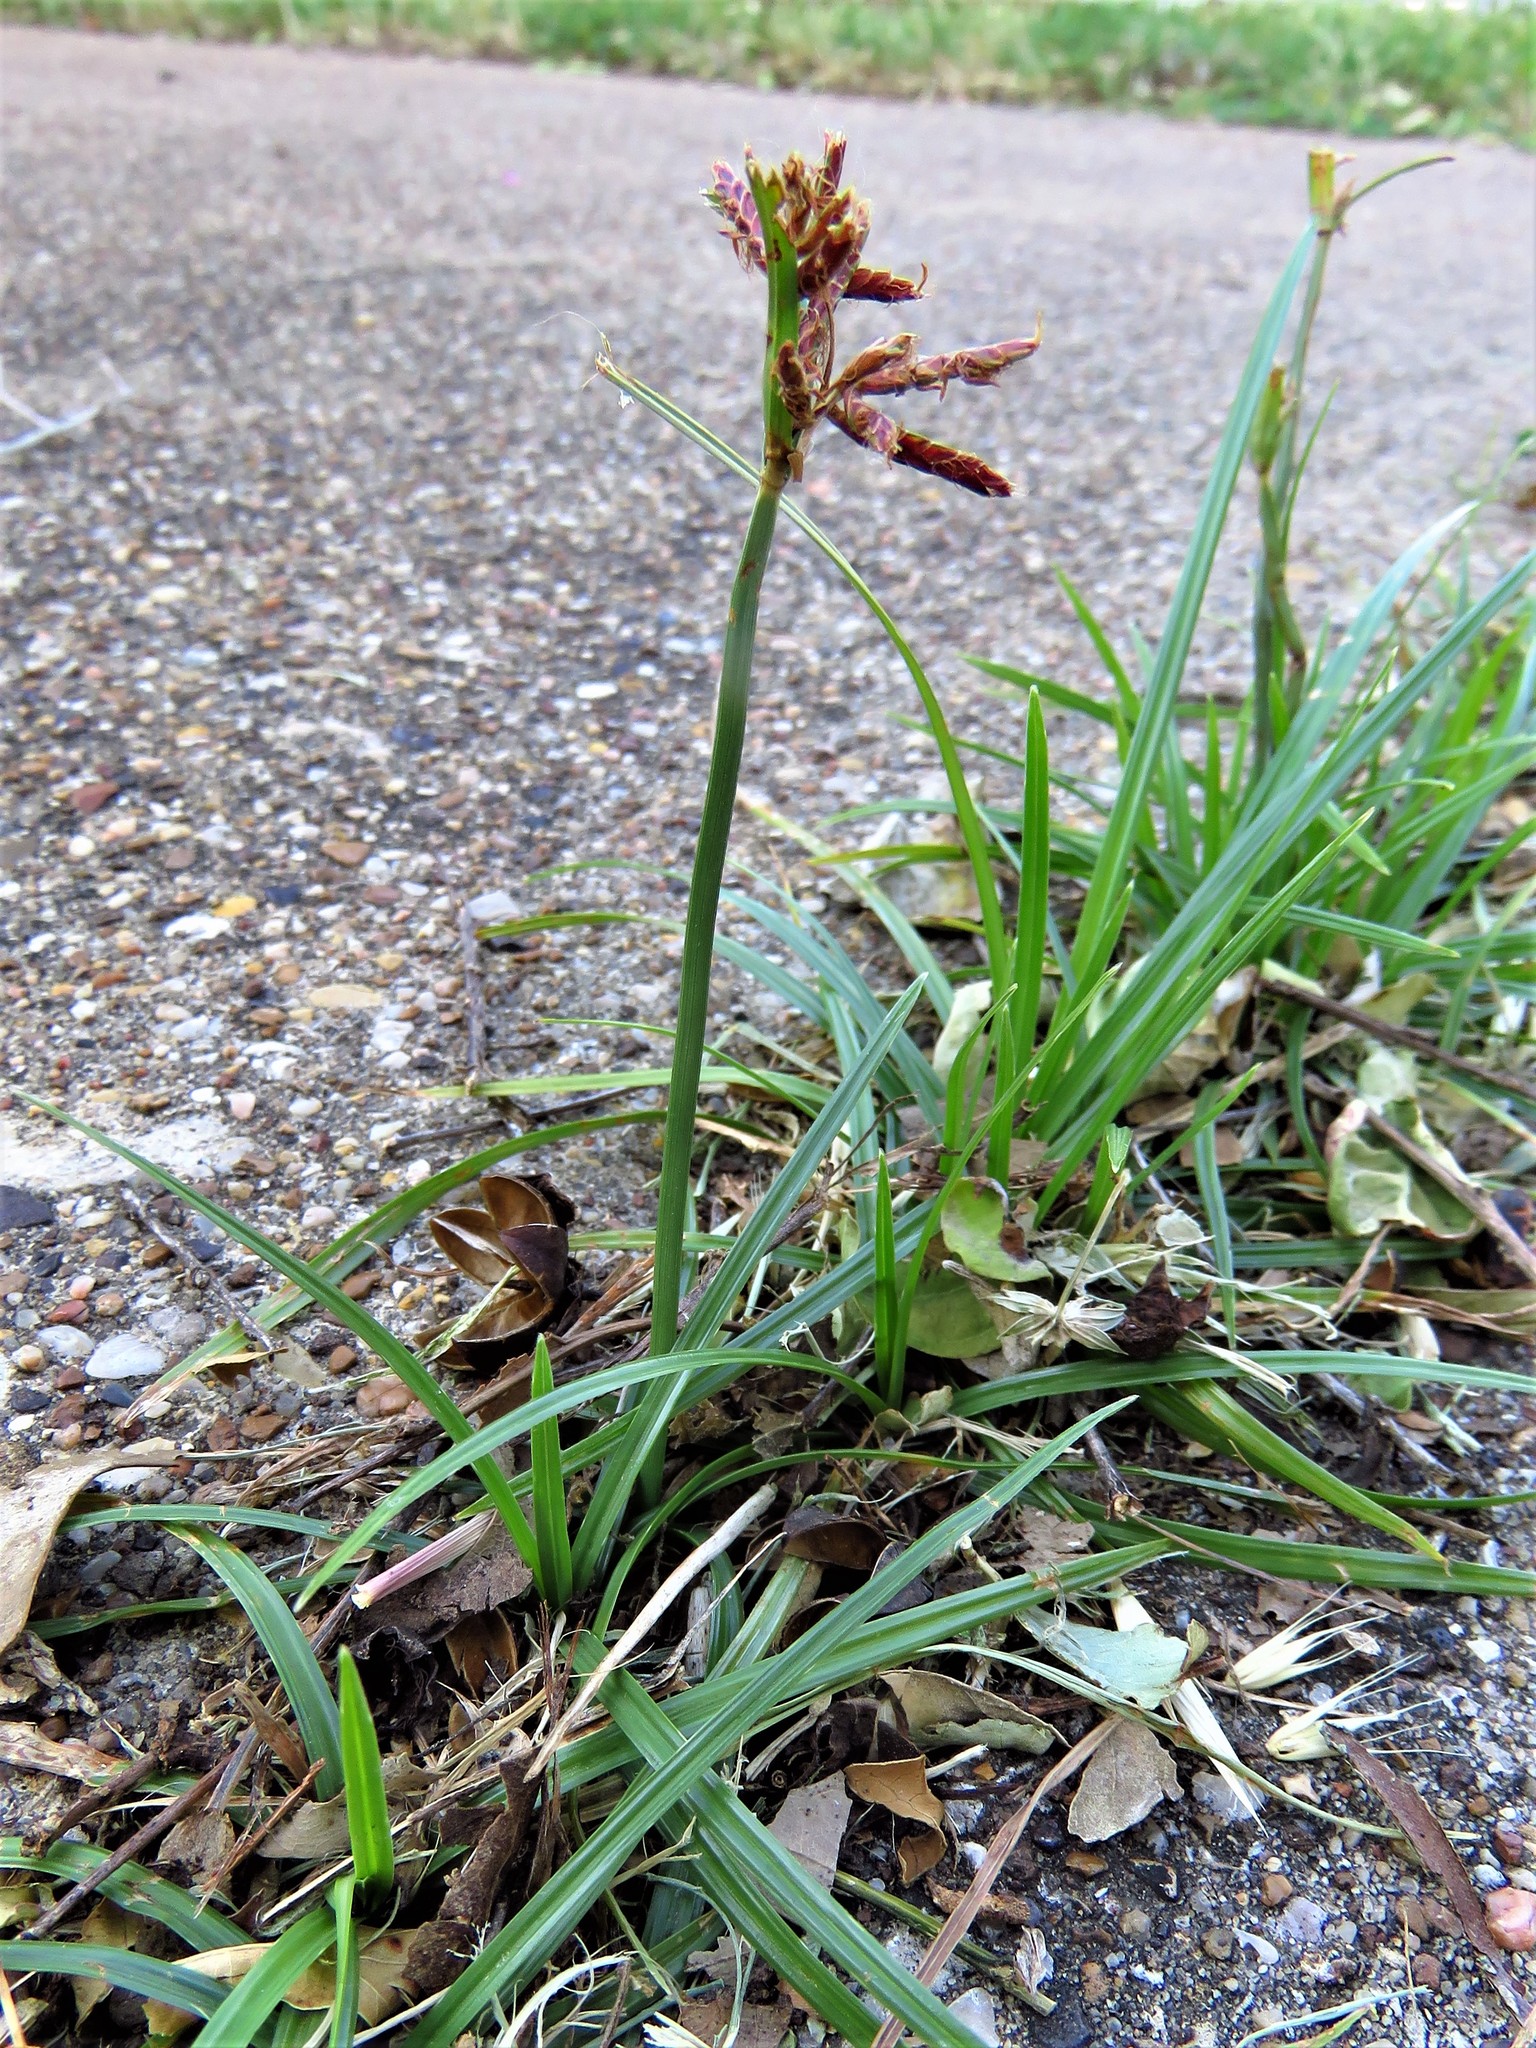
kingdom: Plantae
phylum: Tracheophyta
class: Liliopsida
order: Poales
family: Cyperaceae
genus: Cyperus
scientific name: Cyperus rotundus
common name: Nutgrass
